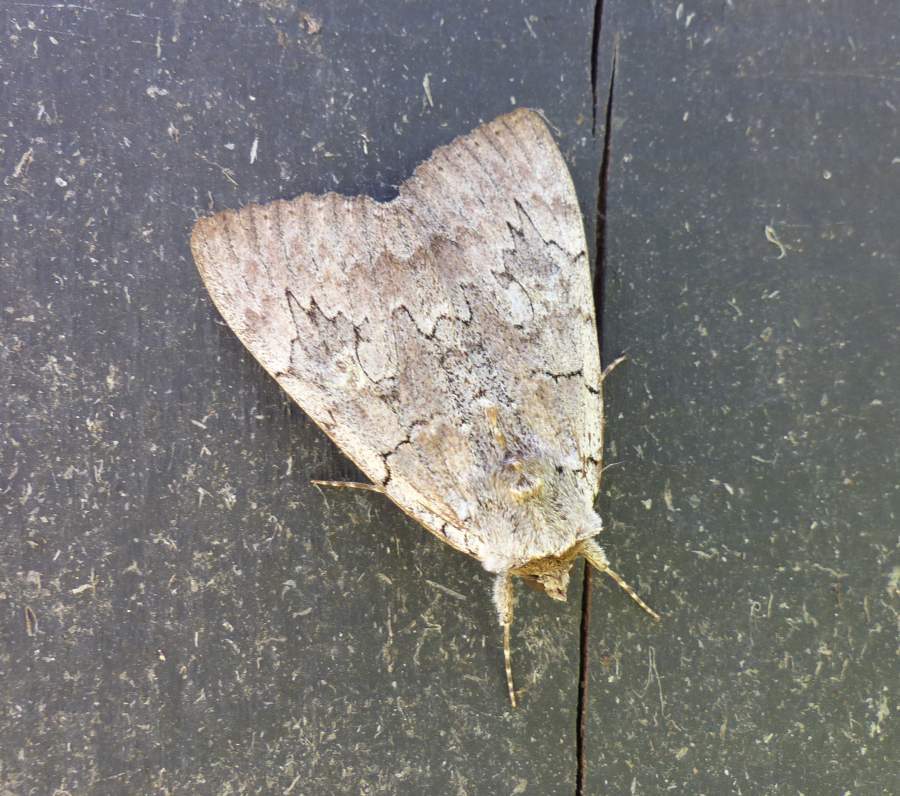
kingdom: Animalia
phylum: Arthropoda
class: Insecta
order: Lepidoptera
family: Erebidae
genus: Catocala
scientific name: Catocala concumbens
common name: Pink underwing
